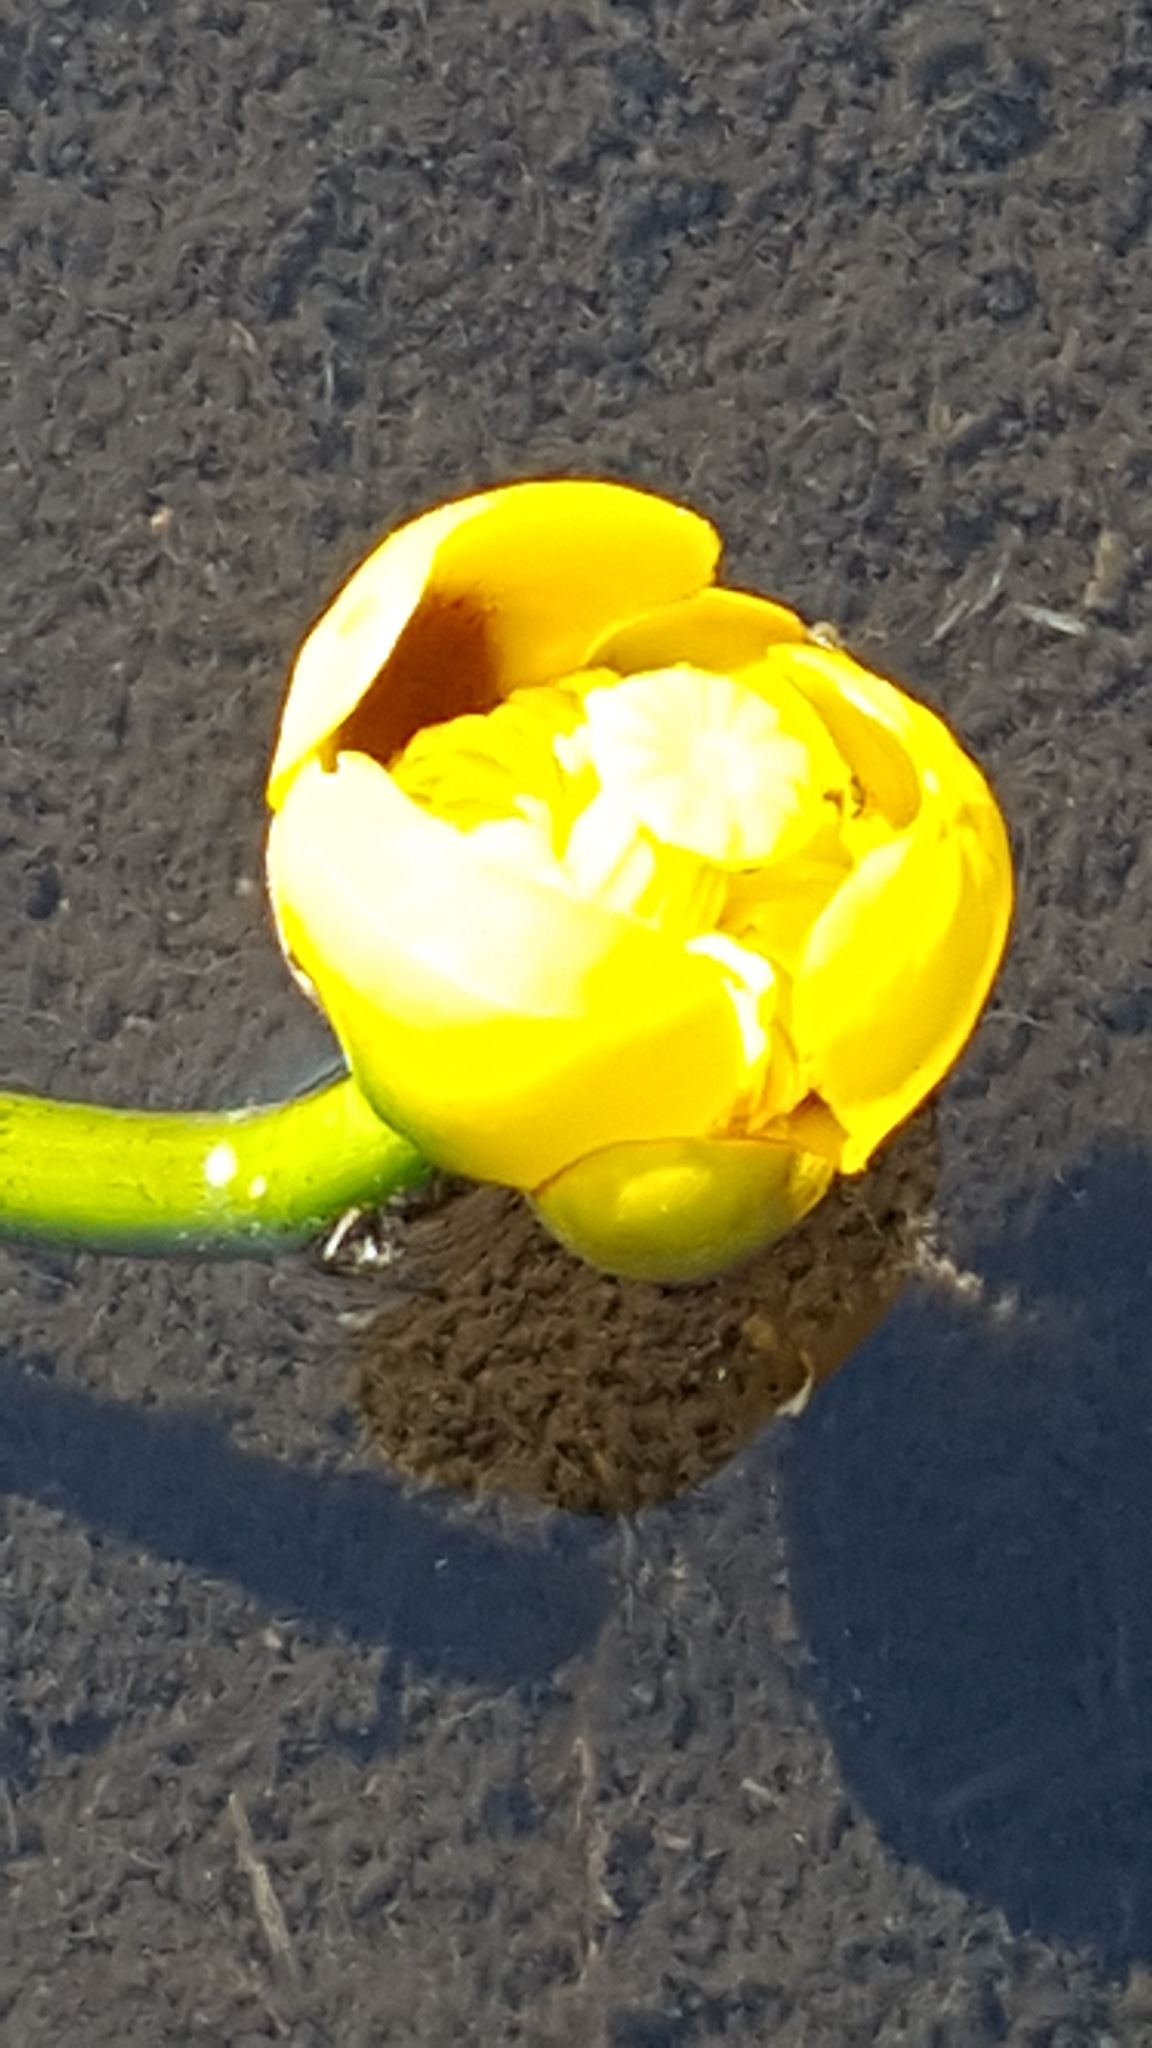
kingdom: Plantae
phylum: Tracheophyta
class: Magnoliopsida
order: Nymphaeales
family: Nymphaeaceae
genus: Nuphar
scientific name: Nuphar variegata
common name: Beaver-root
